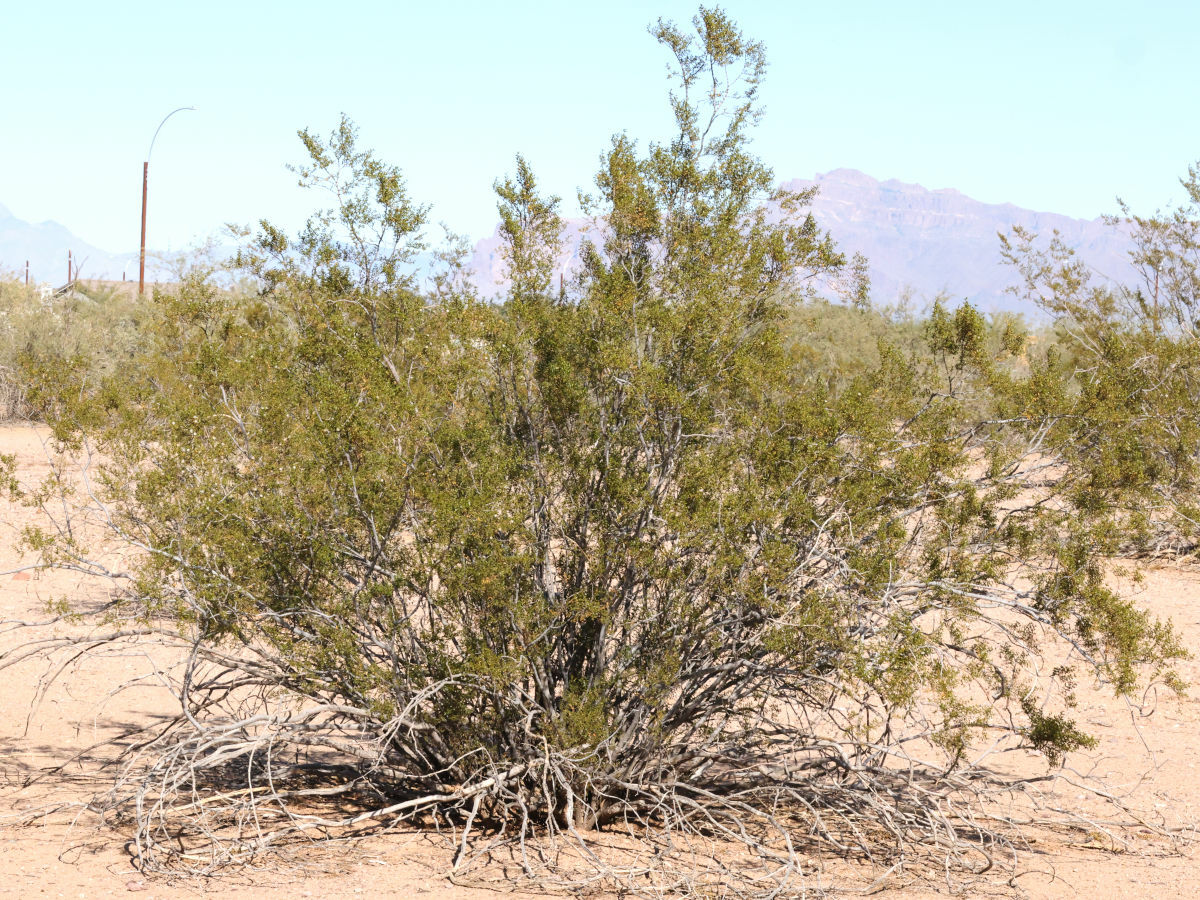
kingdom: Plantae
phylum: Tracheophyta
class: Magnoliopsida
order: Zygophyllales
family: Zygophyllaceae
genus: Larrea
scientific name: Larrea tridentata
